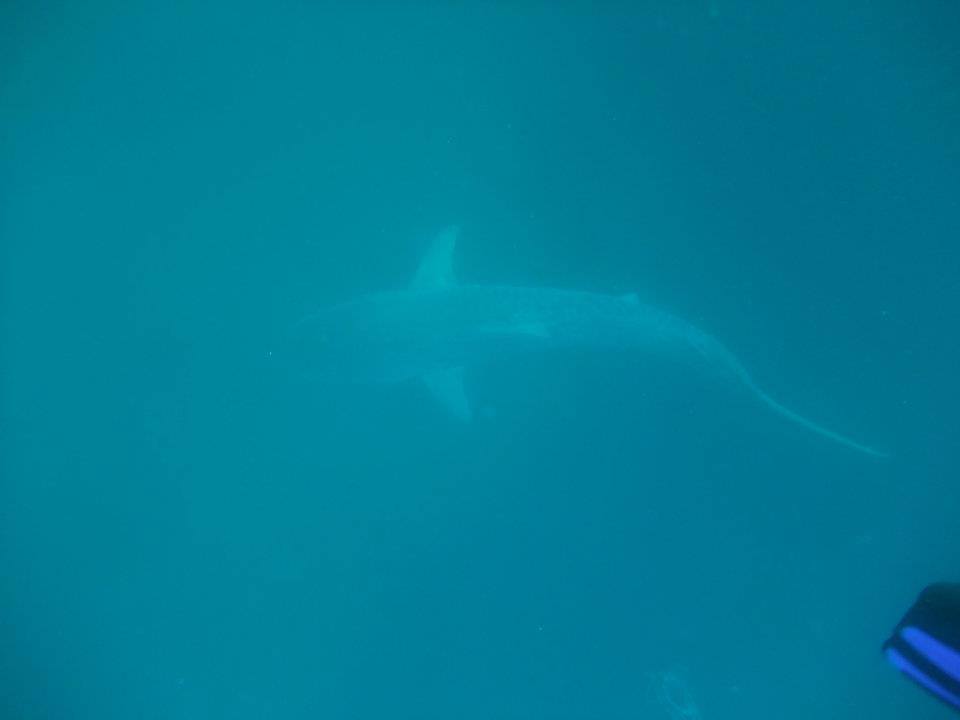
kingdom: Animalia
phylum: Chordata
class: Elasmobranchii
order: Carcharhiniformes
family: Carcharhinidae
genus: Carcharhinus
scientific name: Carcharhinus obscurus
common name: Dusky shark
